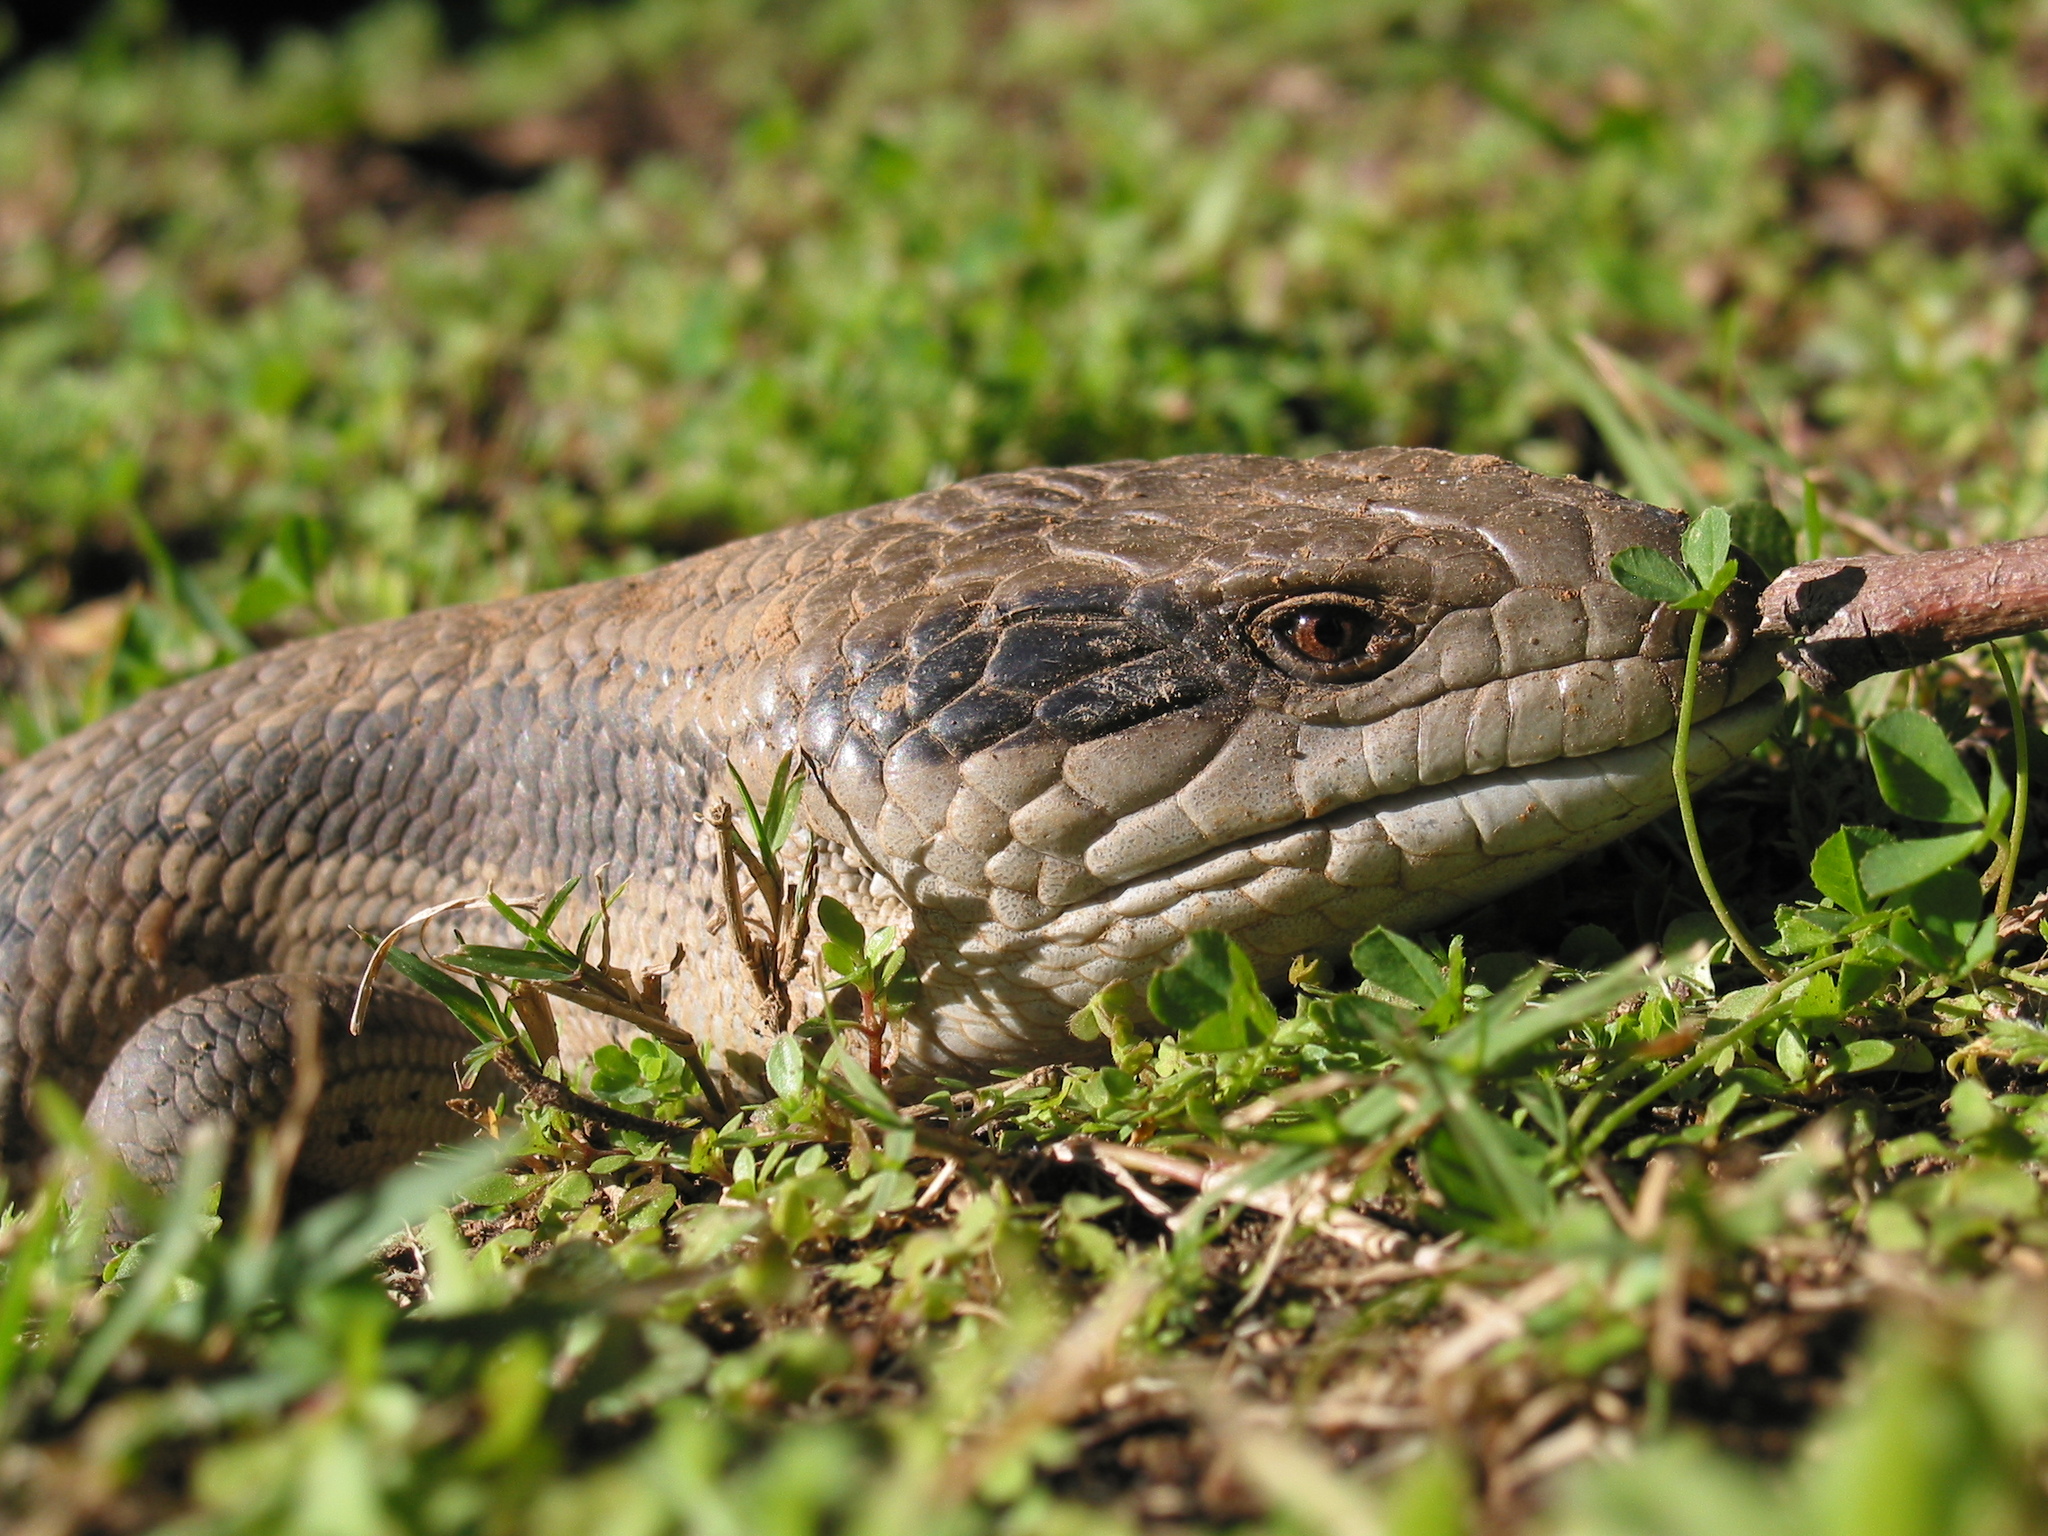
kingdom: Animalia
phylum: Chordata
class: Squamata
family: Scincidae
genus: Tiliqua
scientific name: Tiliqua scincoides
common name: Common bluetongue
